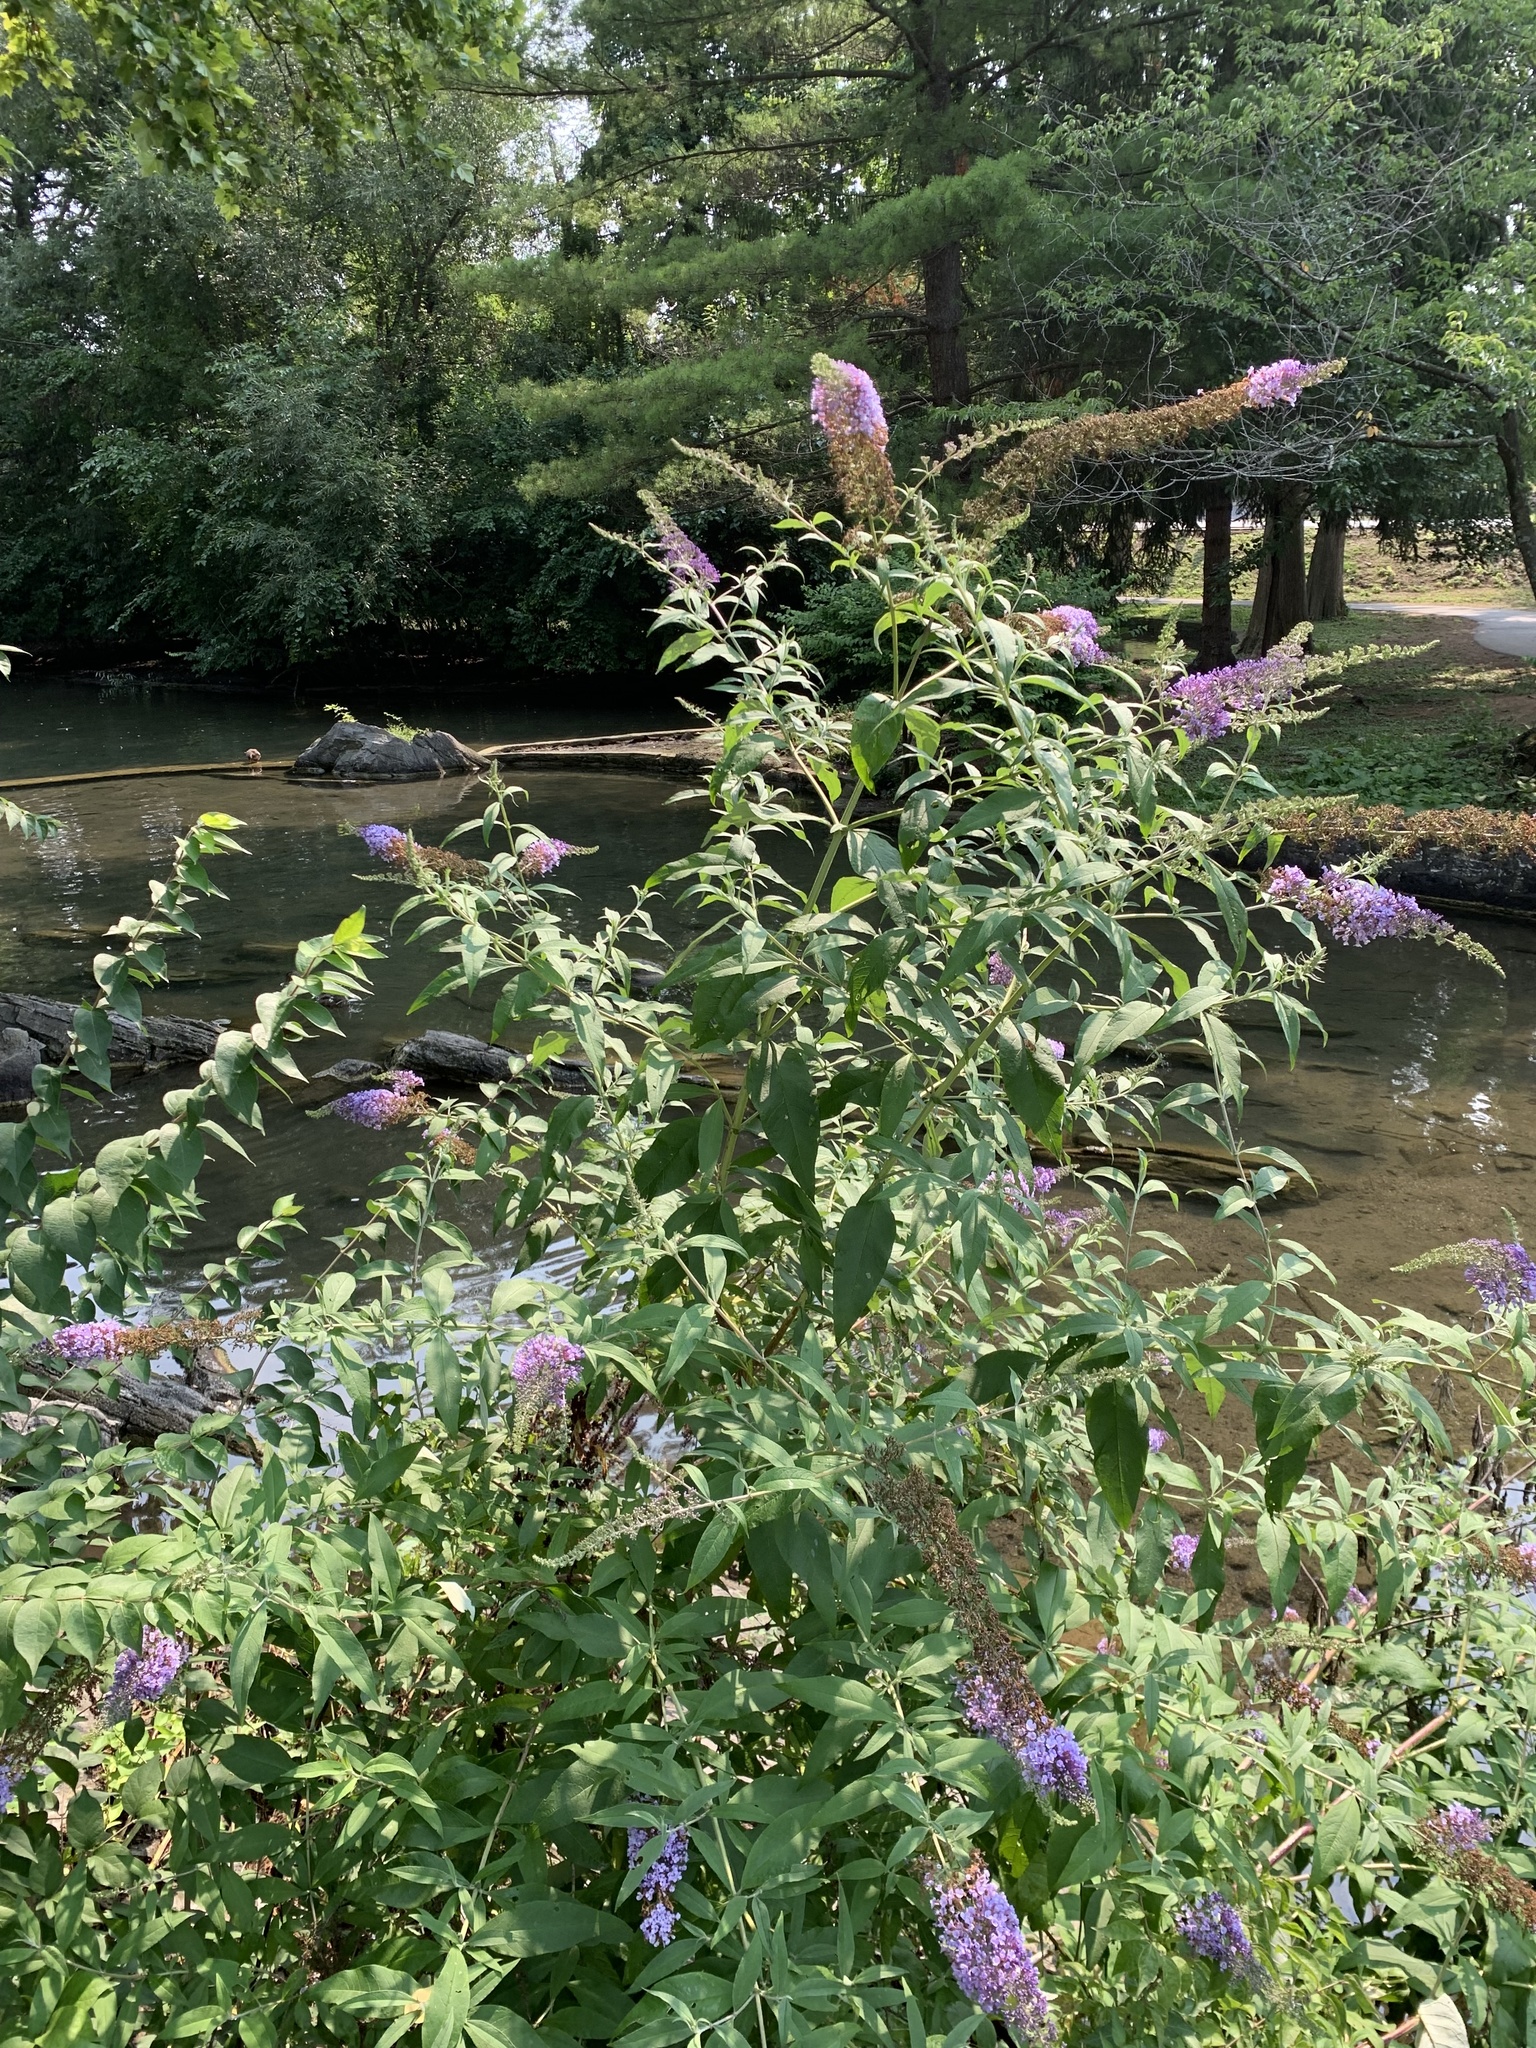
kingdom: Plantae
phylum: Tracheophyta
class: Magnoliopsida
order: Lamiales
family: Scrophulariaceae
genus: Buddleja
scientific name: Buddleja davidii
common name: Butterfly-bush
